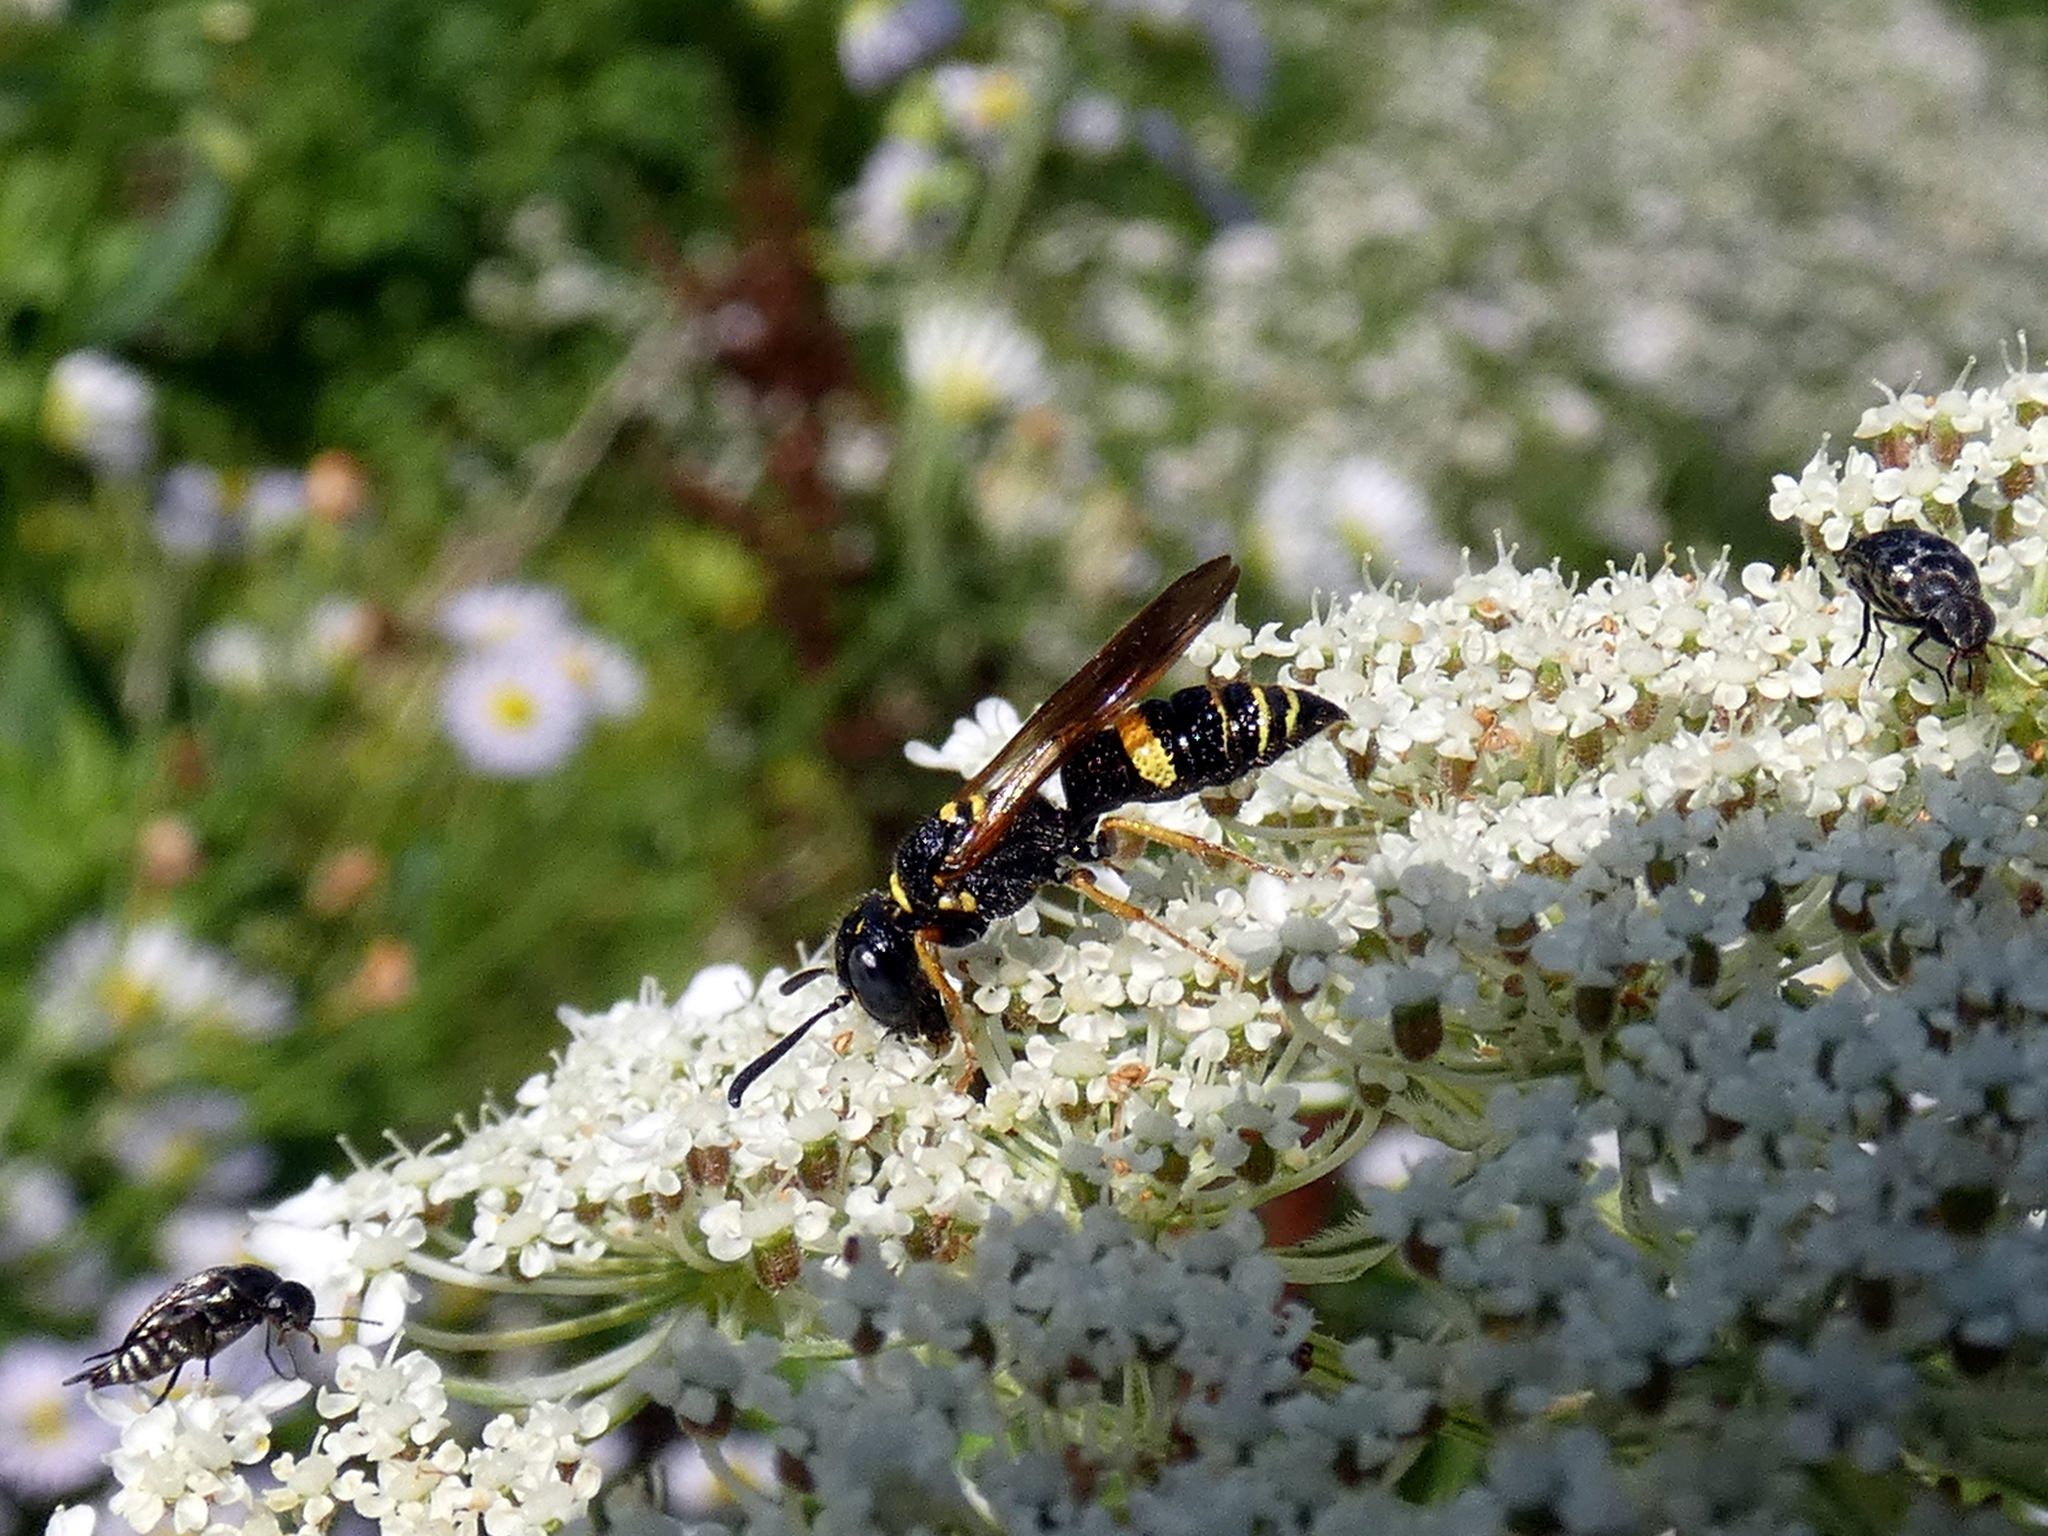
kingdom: Animalia
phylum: Arthropoda
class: Insecta
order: Hymenoptera
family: Crabronidae
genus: Philanthus
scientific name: Philanthus gibbosus
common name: Humped beewolf
